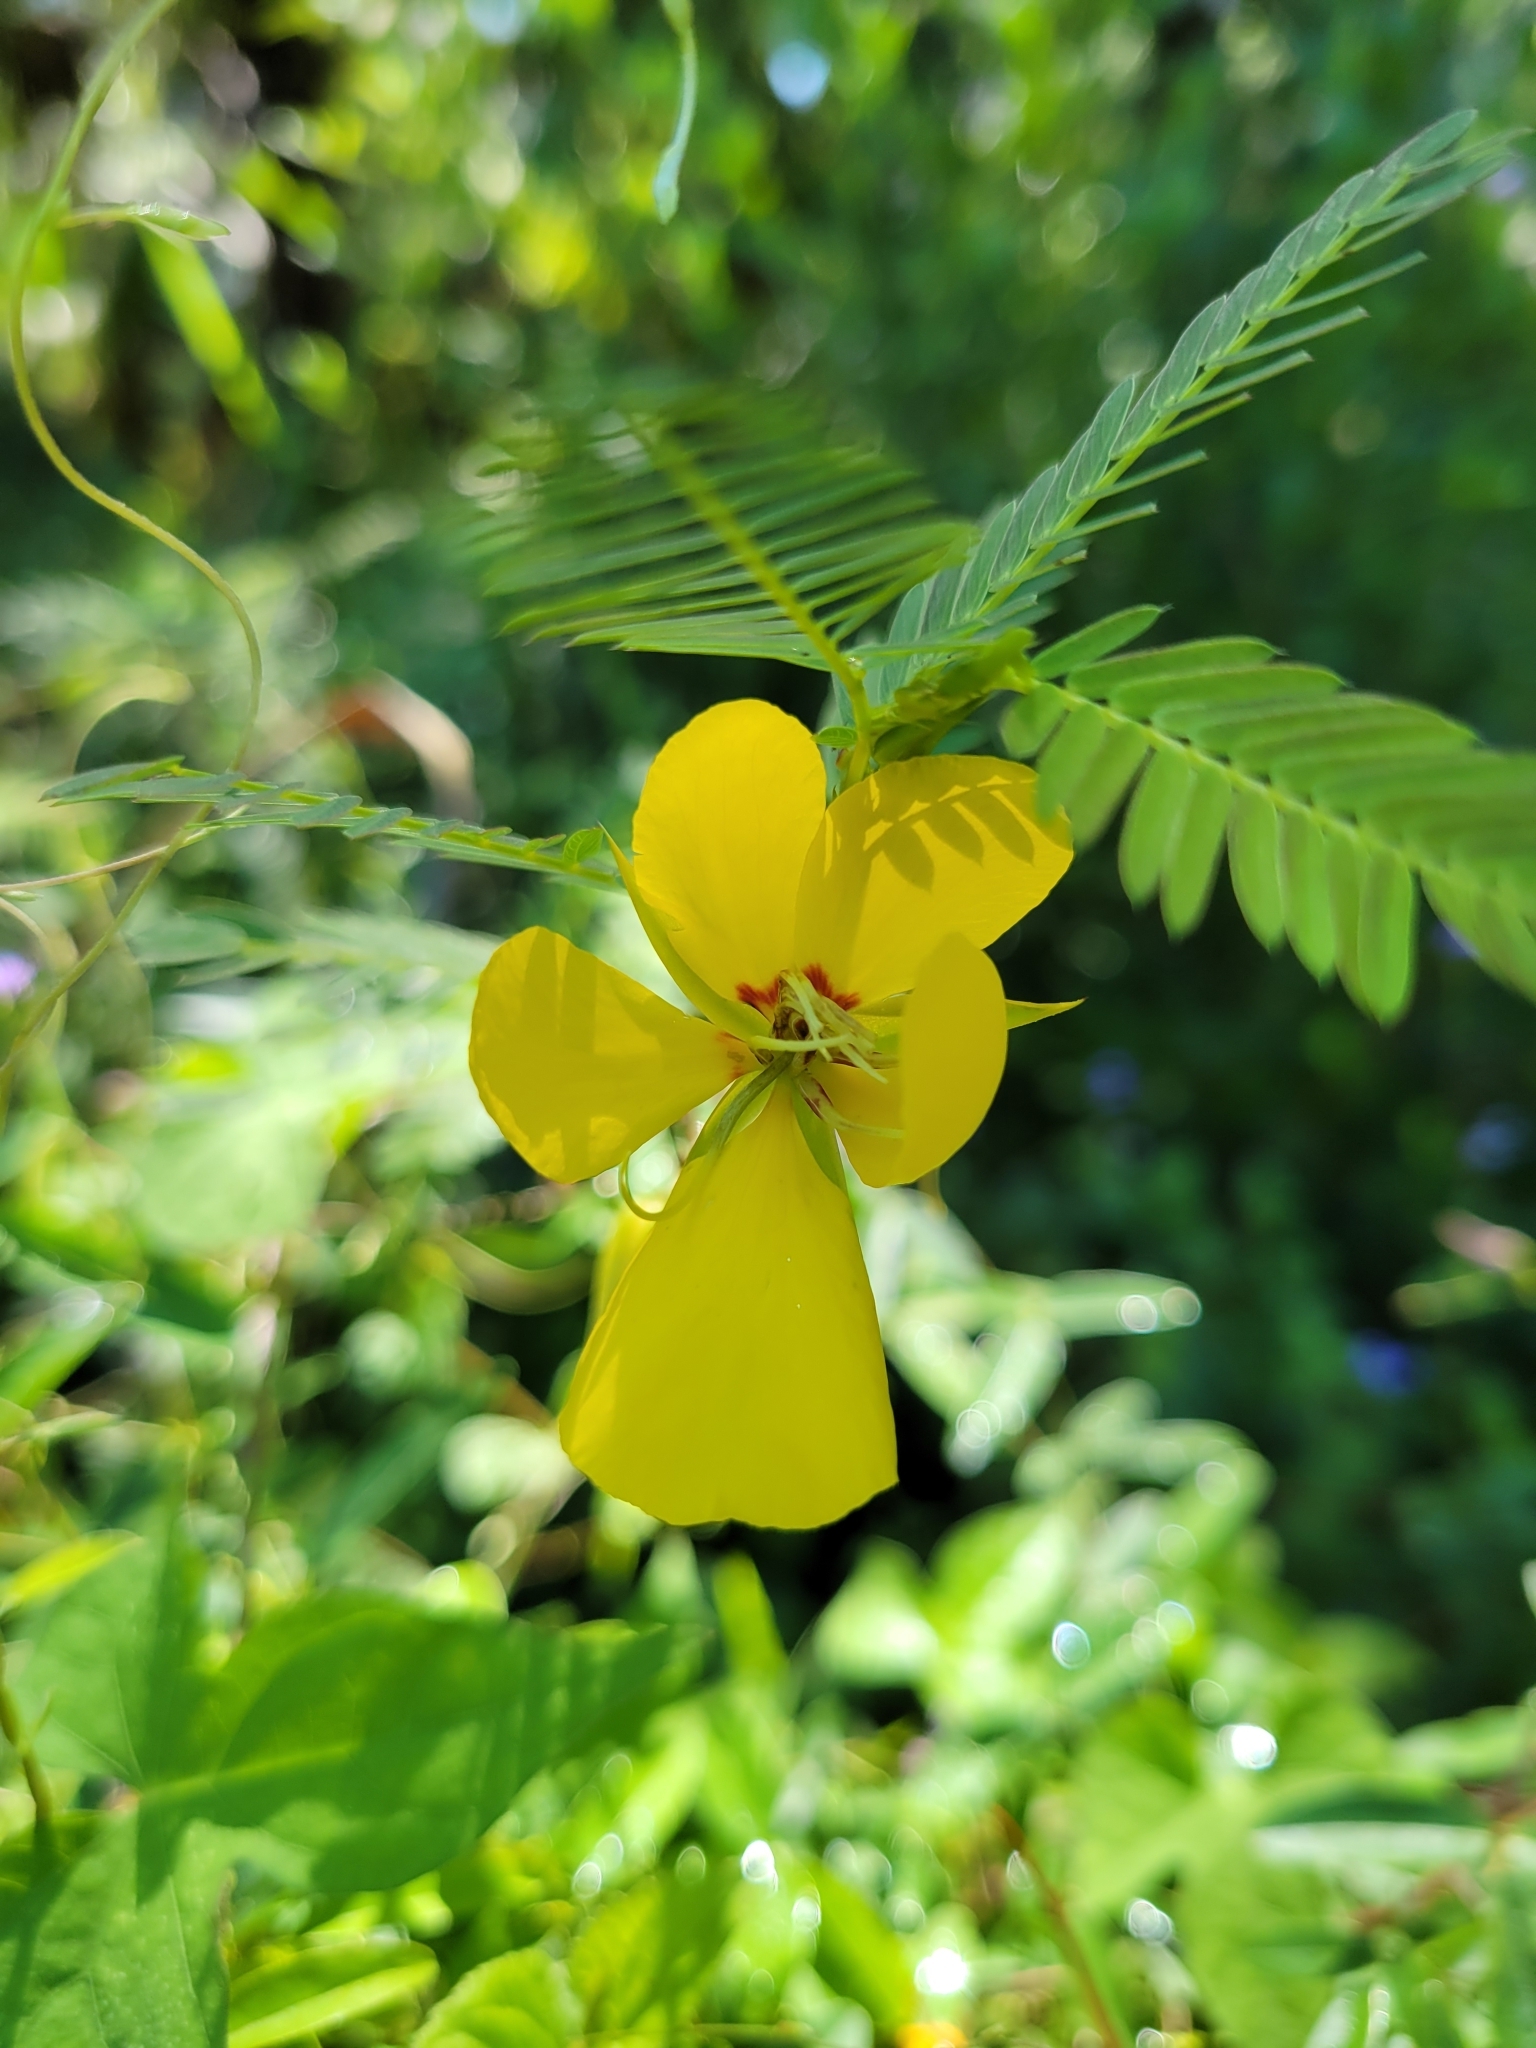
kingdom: Plantae
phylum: Tracheophyta
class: Magnoliopsida
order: Fabales
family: Fabaceae
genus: Chamaecrista
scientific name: Chamaecrista fasciculata
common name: Golden cassia
